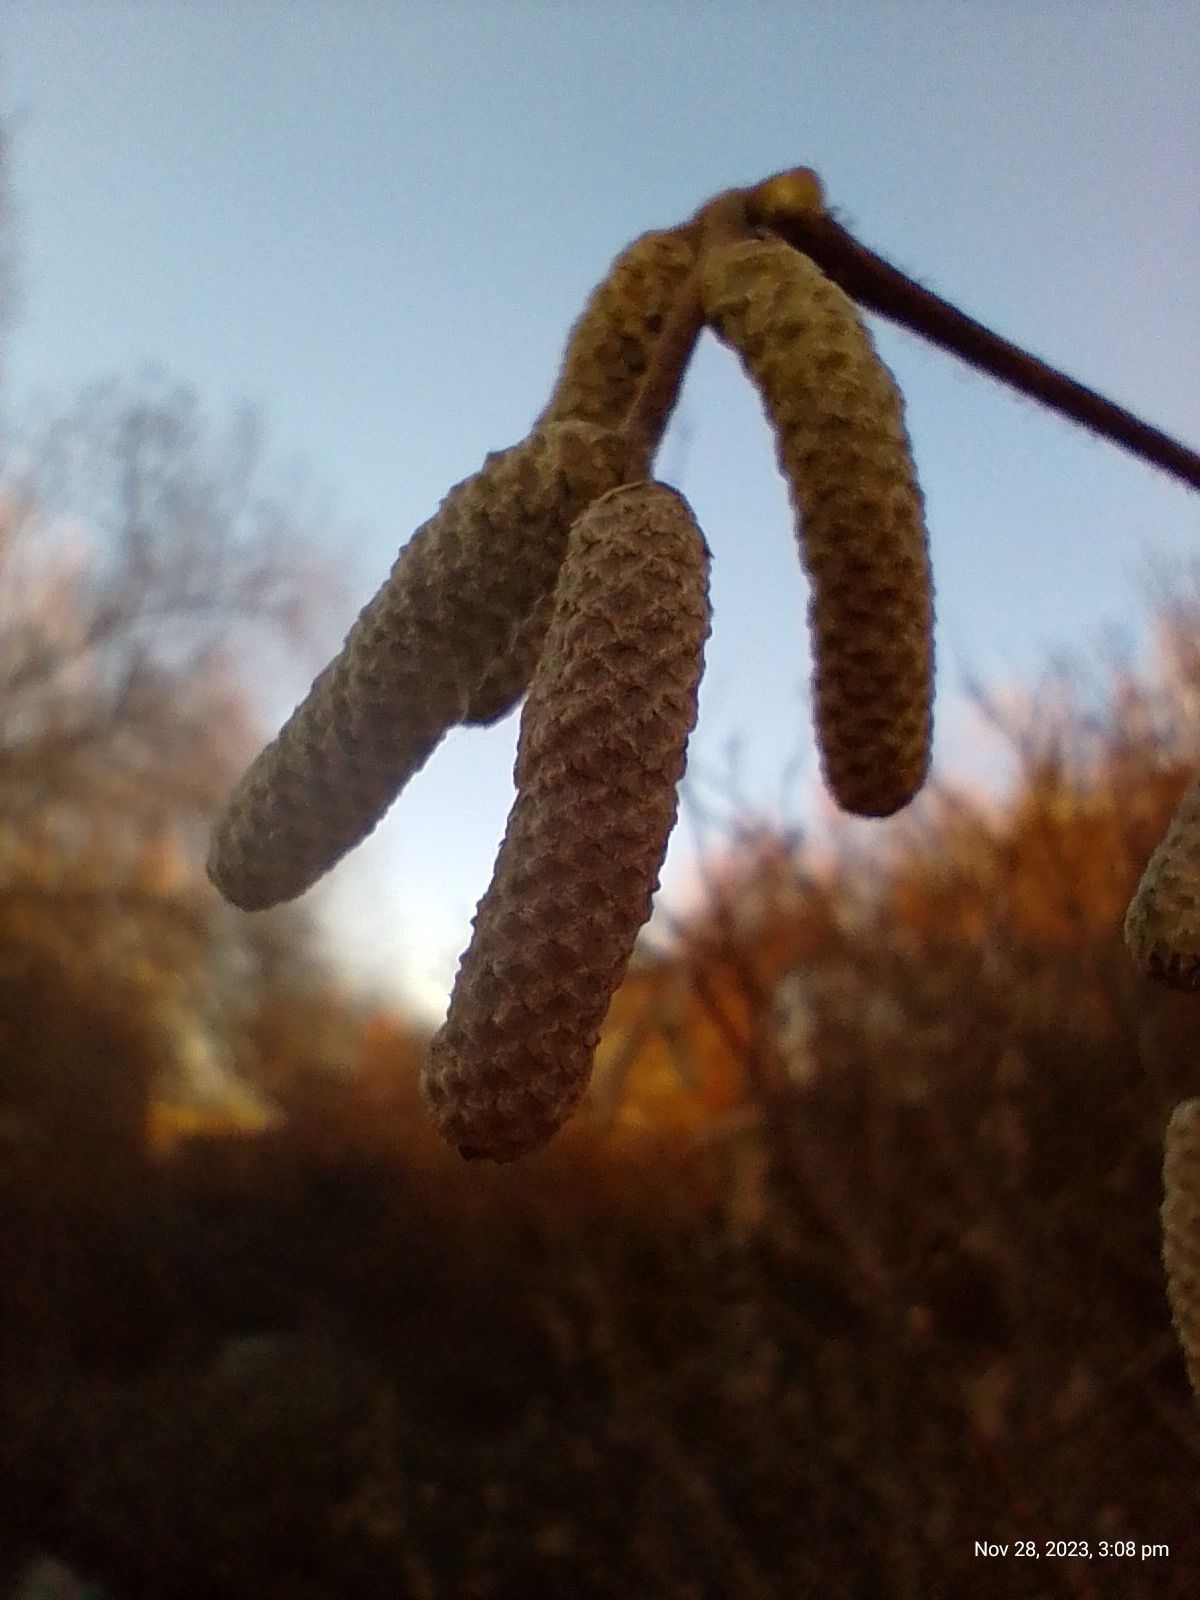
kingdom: Plantae
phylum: Tracheophyta
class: Magnoliopsida
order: Fagales
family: Betulaceae
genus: Corylus
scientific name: Corylus avellana
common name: European hazel
